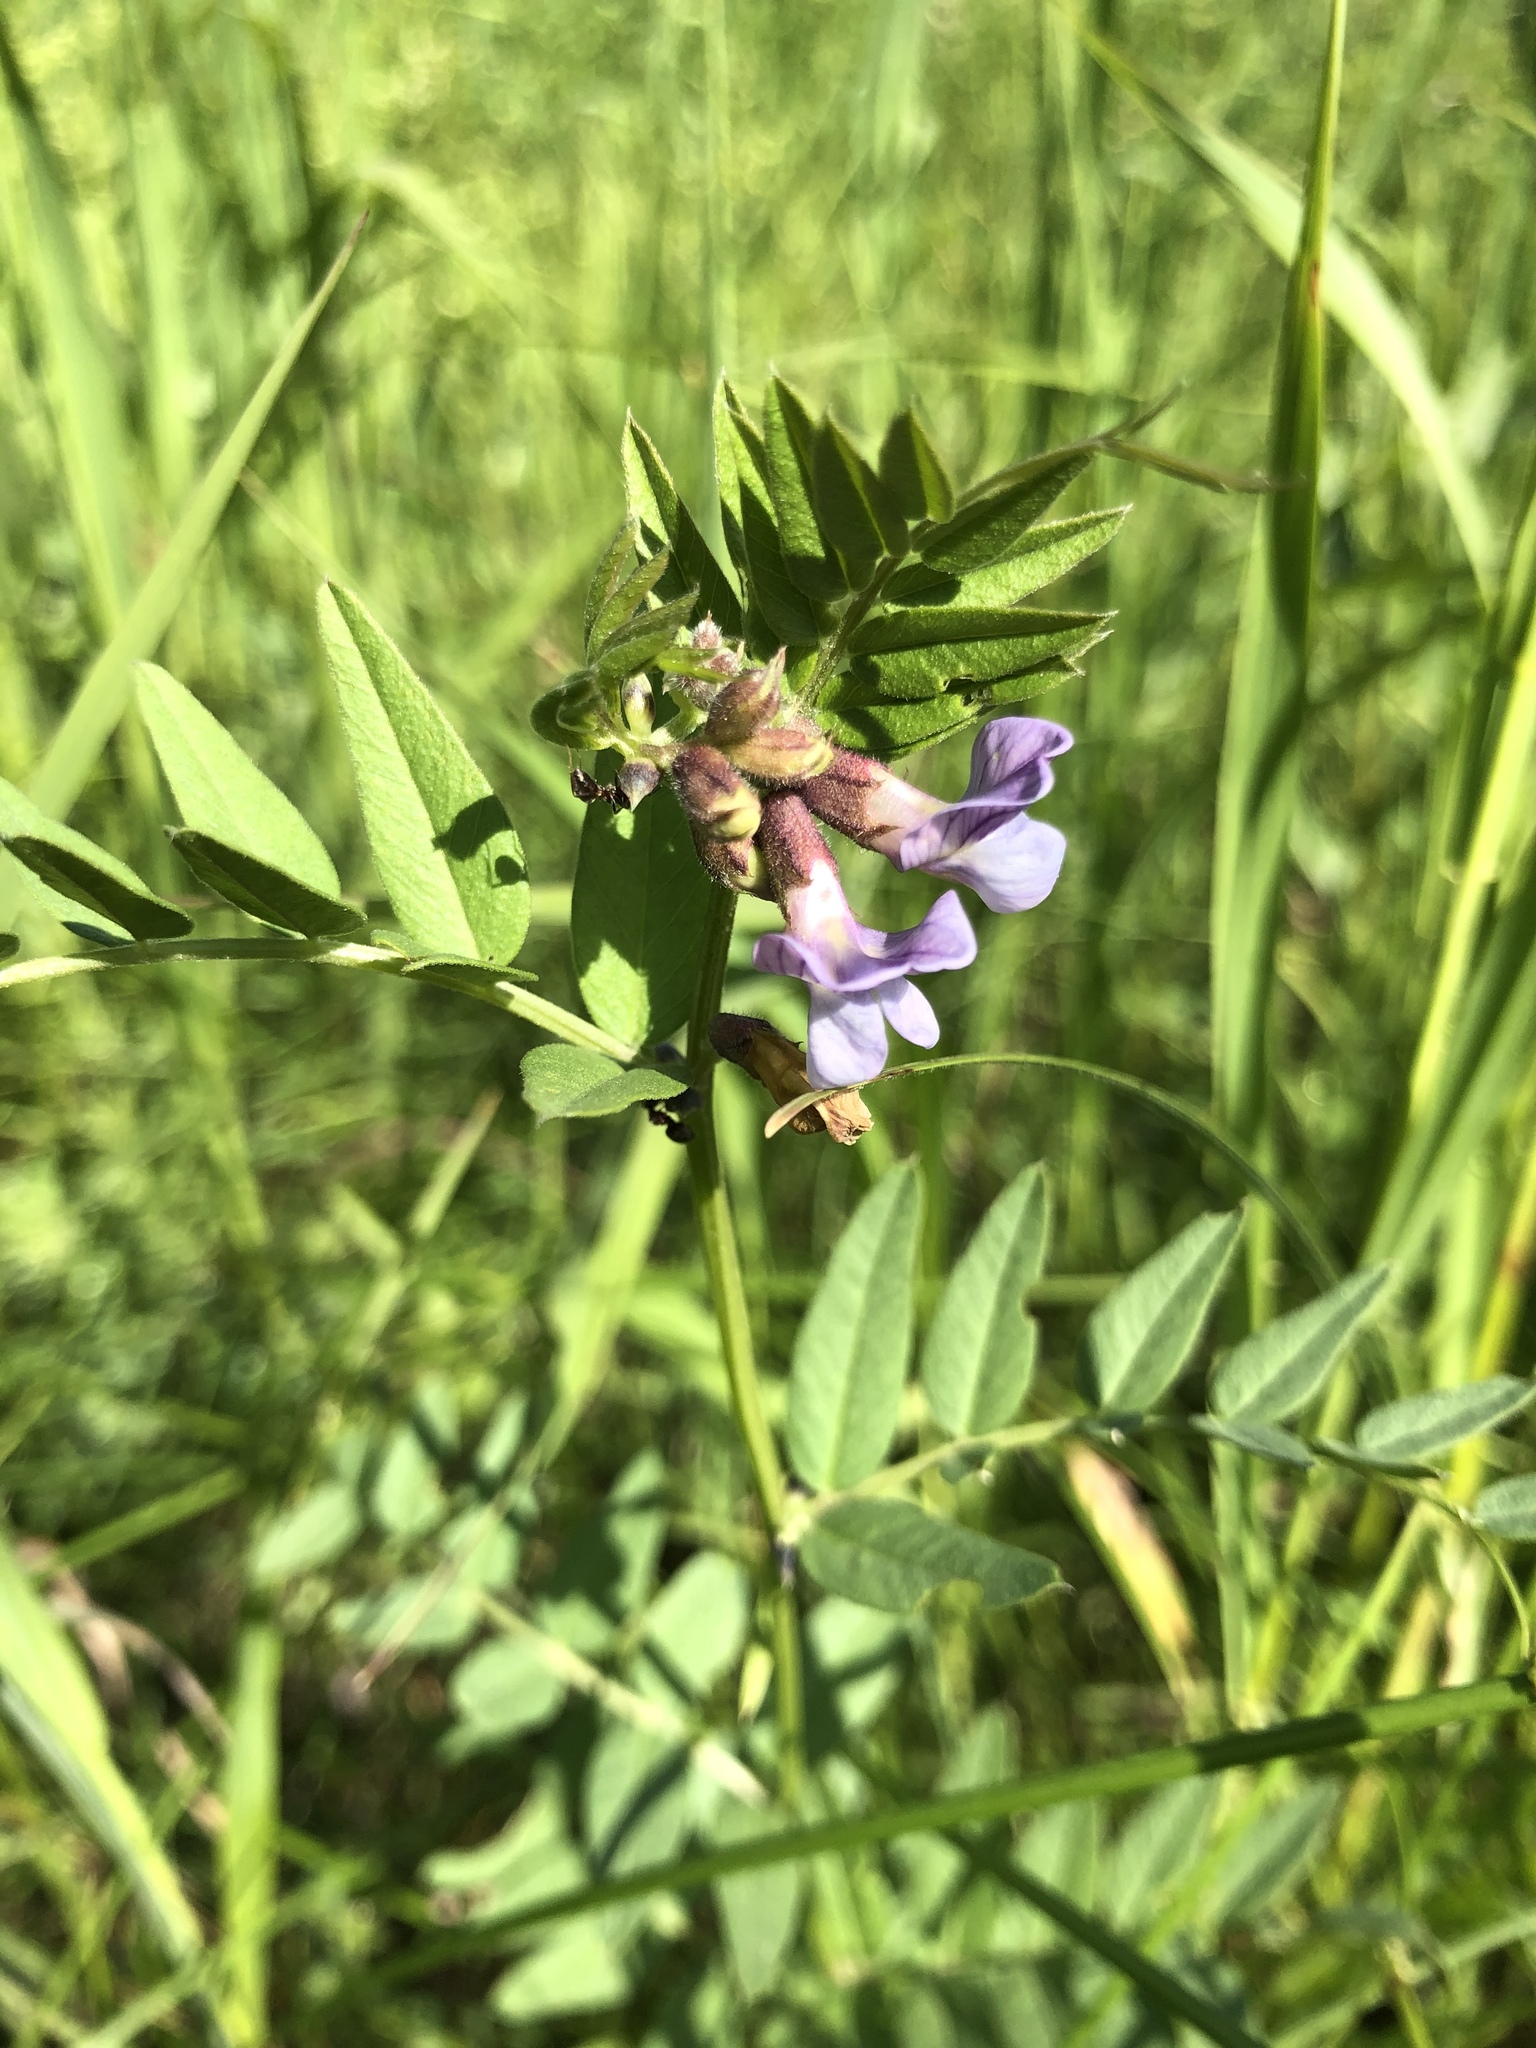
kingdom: Plantae
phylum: Tracheophyta
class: Magnoliopsida
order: Fabales
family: Fabaceae
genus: Vicia
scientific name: Vicia sepium
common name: Bush vetch
